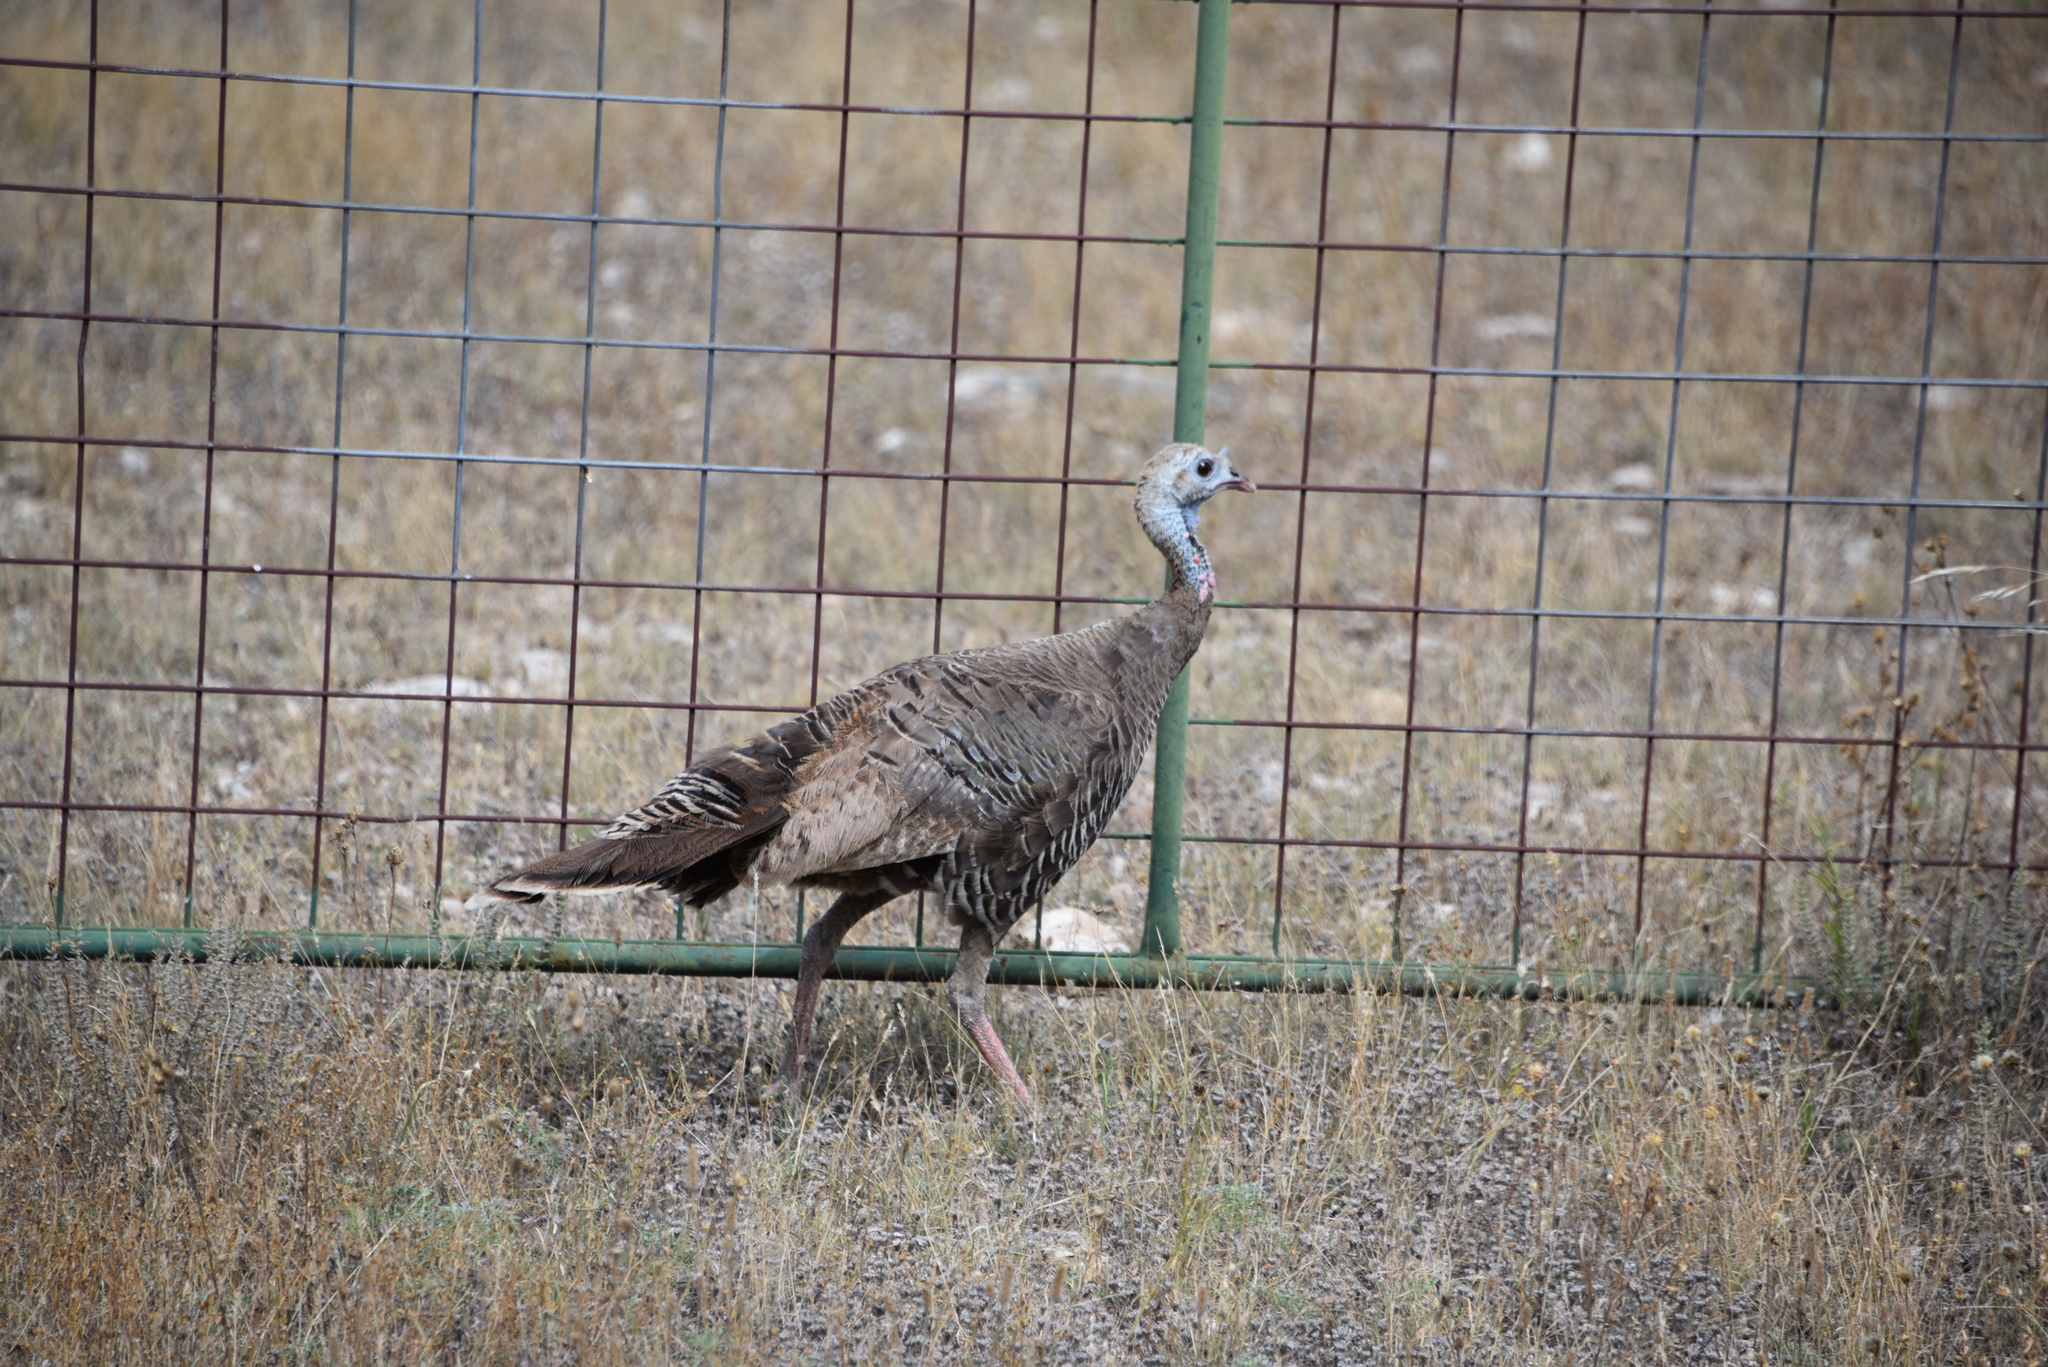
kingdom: Animalia
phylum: Chordata
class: Aves
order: Galliformes
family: Phasianidae
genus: Meleagris
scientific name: Meleagris gallopavo
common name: Wild turkey
